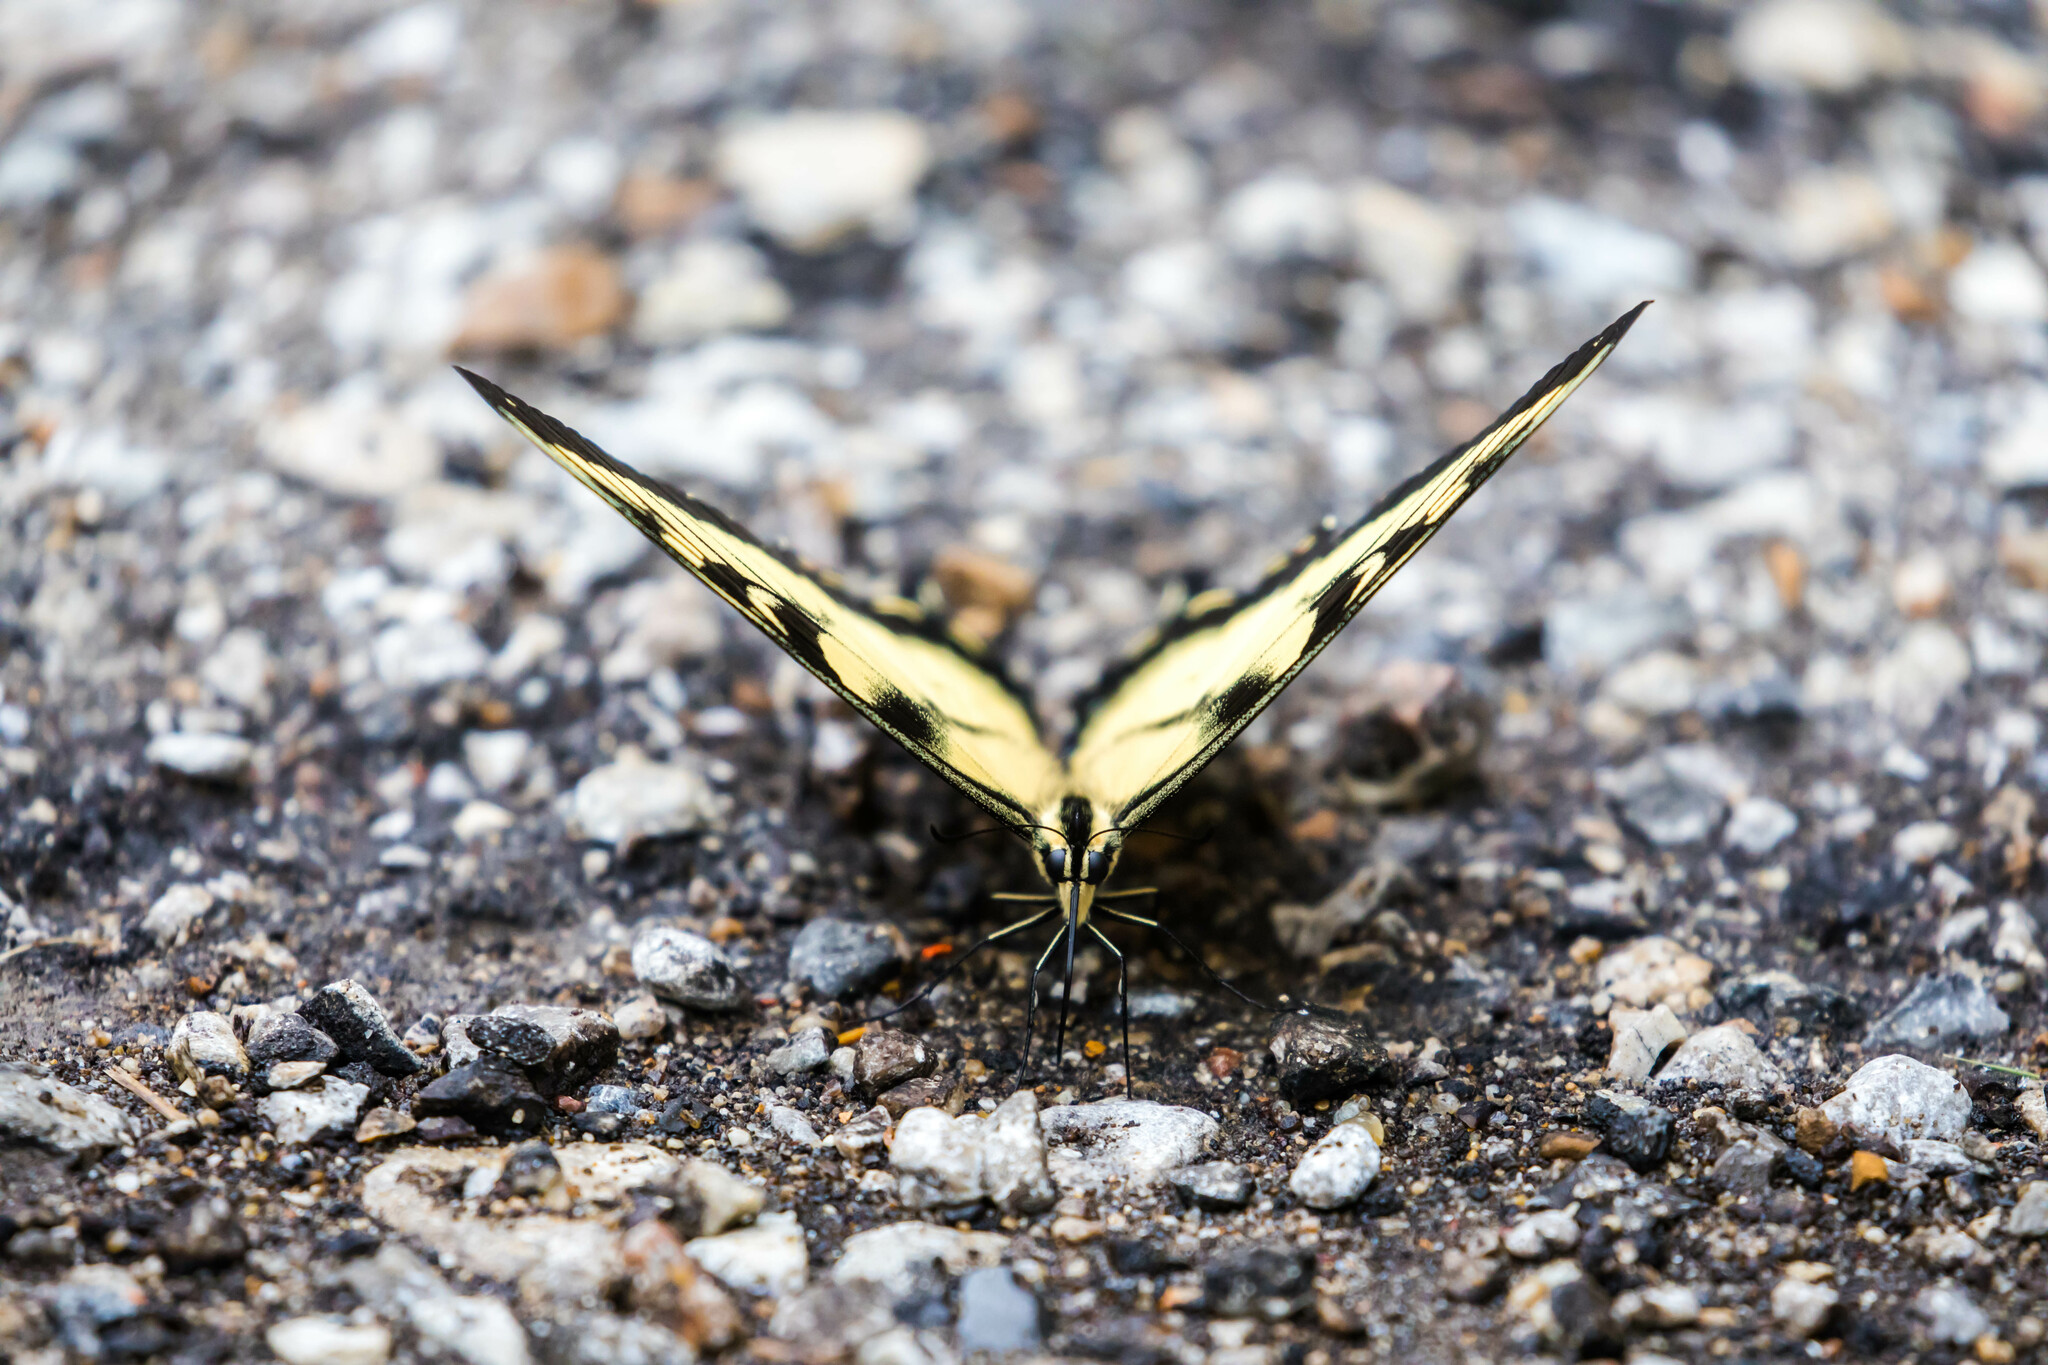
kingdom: Animalia
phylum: Arthropoda
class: Insecta
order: Lepidoptera
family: Papilionidae
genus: Papilio
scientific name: Papilio glaucus
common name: Tiger swallowtail
